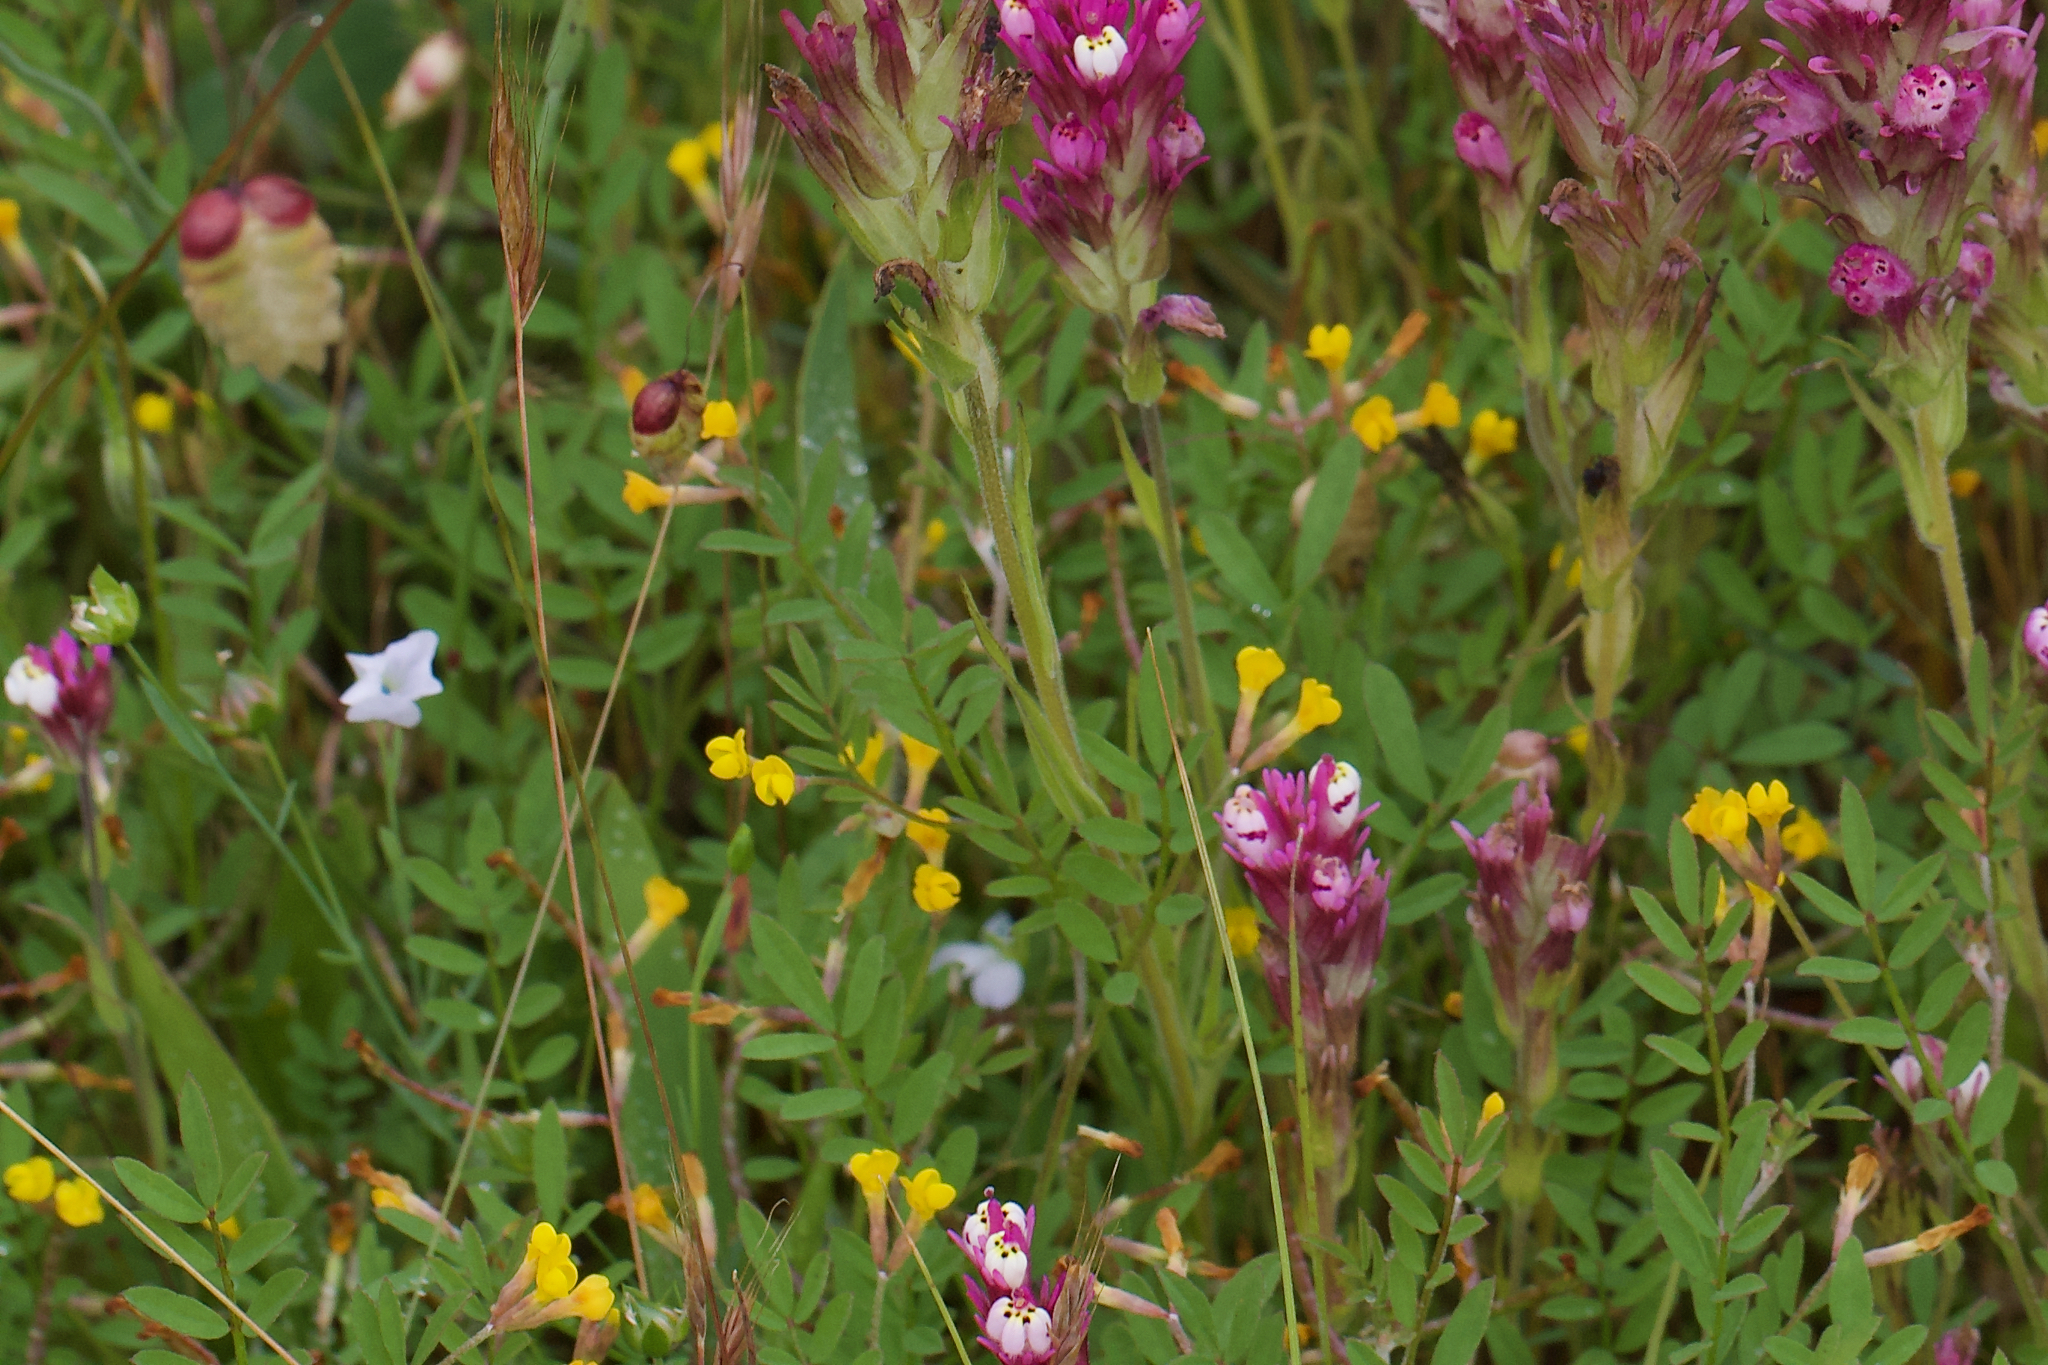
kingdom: Plantae
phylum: Tracheophyta
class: Magnoliopsida
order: Fabales
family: Fabaceae
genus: Ornithopus
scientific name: Ornithopus pinnatus
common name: Orange bird's-foot
